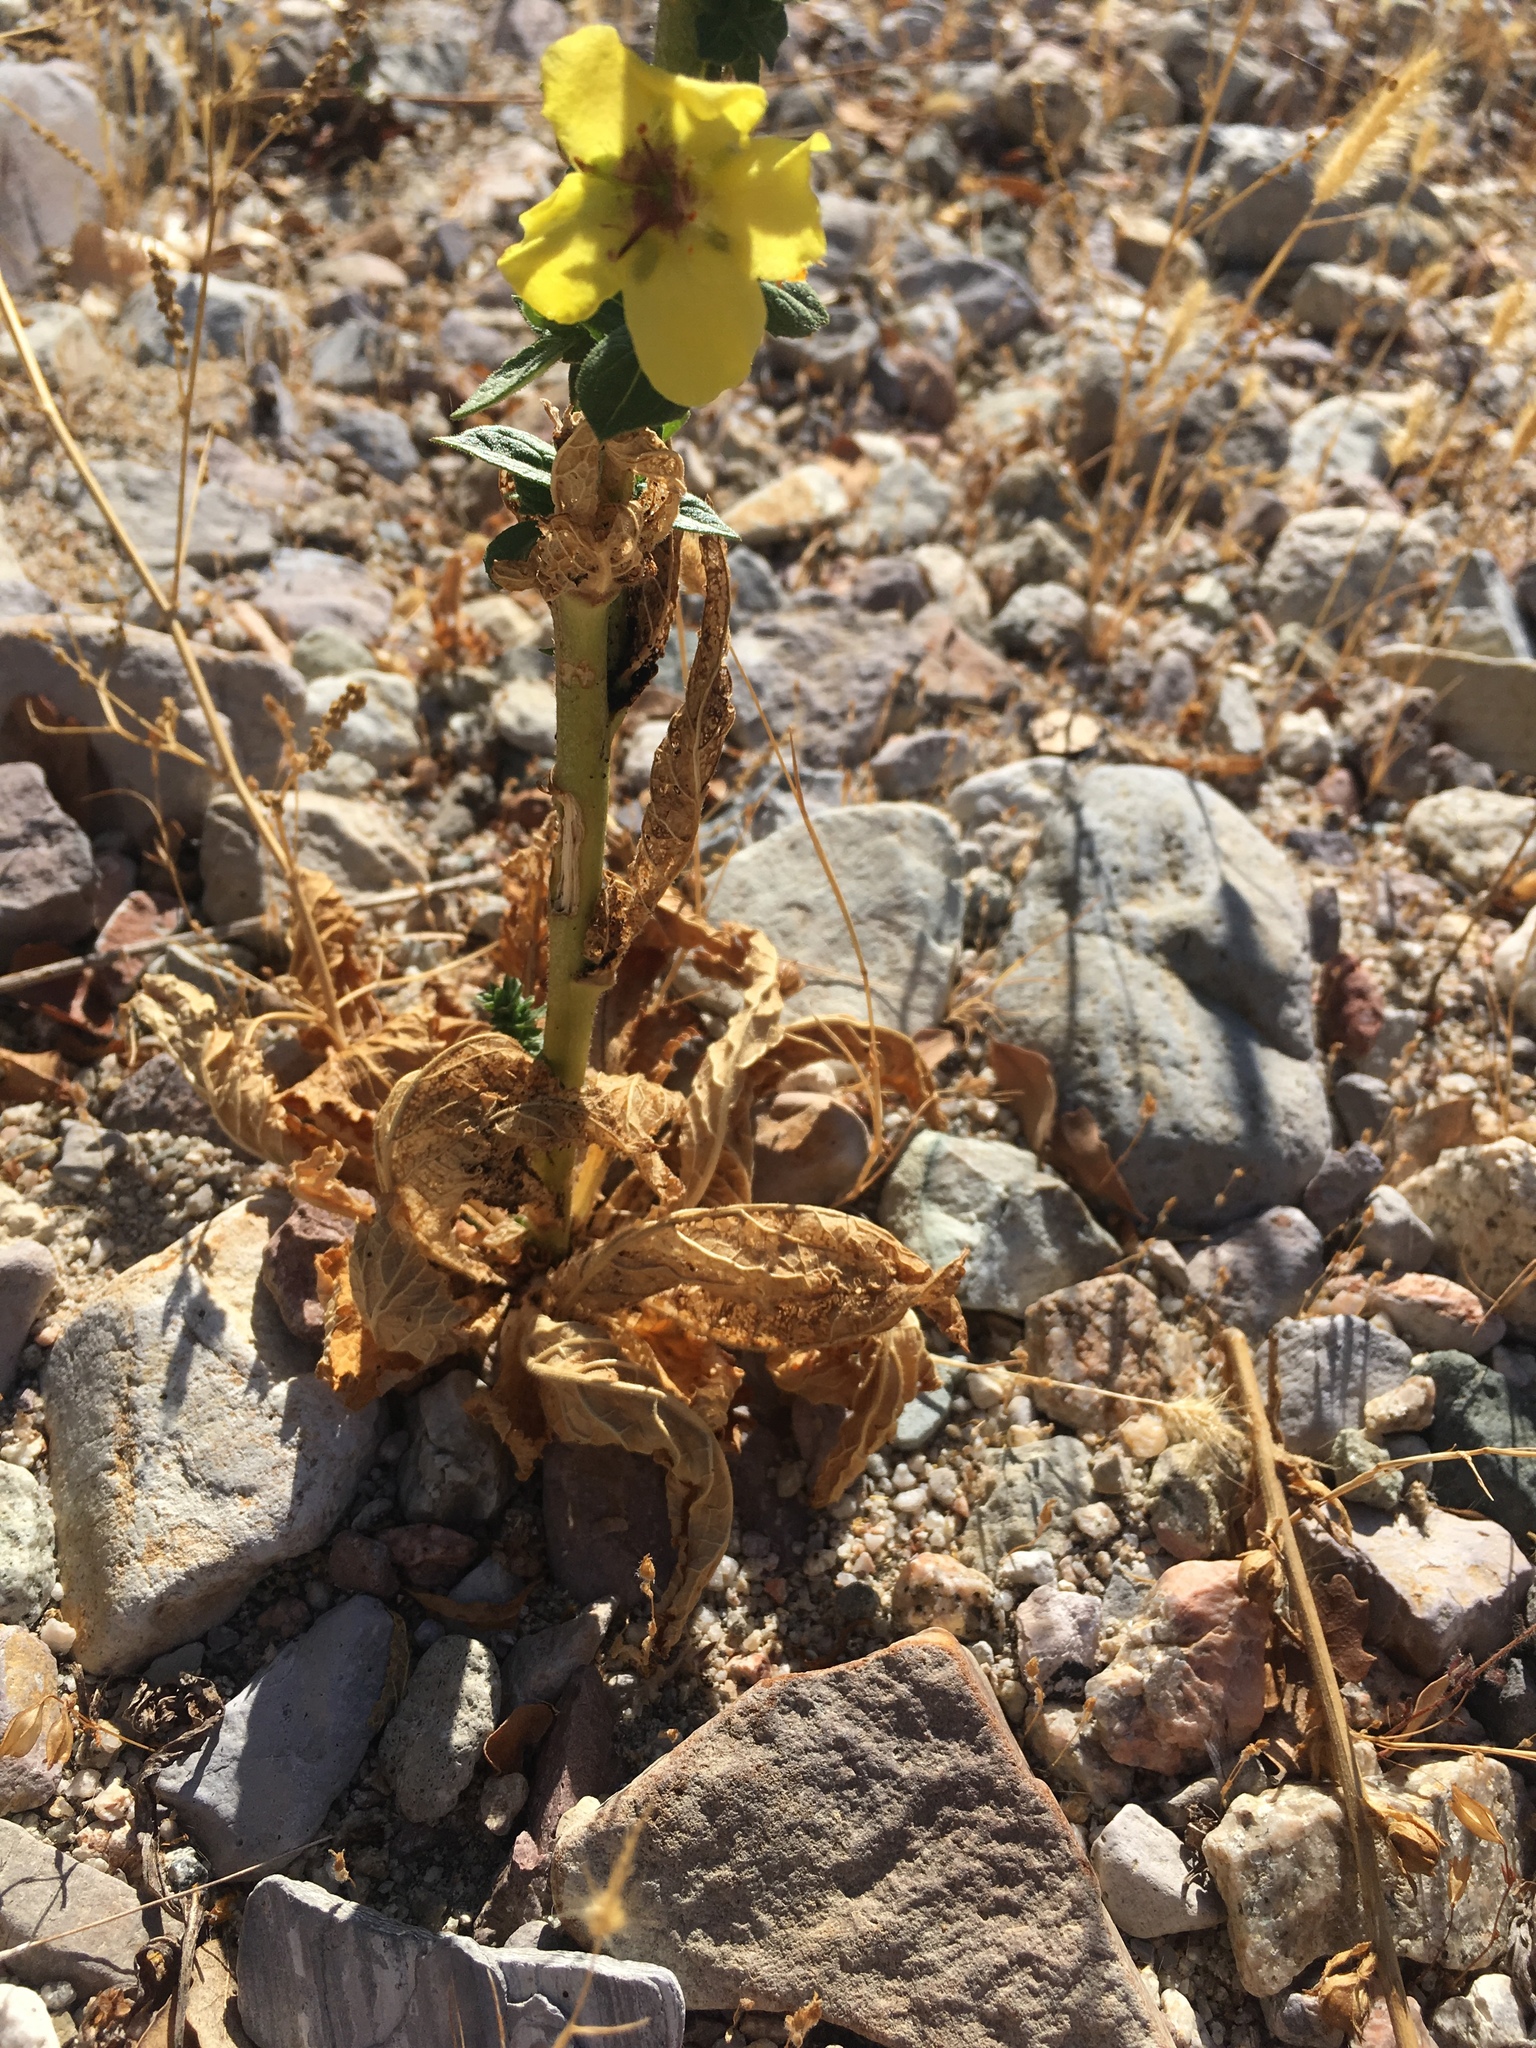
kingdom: Plantae
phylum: Tracheophyta
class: Magnoliopsida
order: Lamiales
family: Scrophulariaceae
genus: Verbascum
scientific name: Verbascum virgatum
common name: Twiggy mullein
